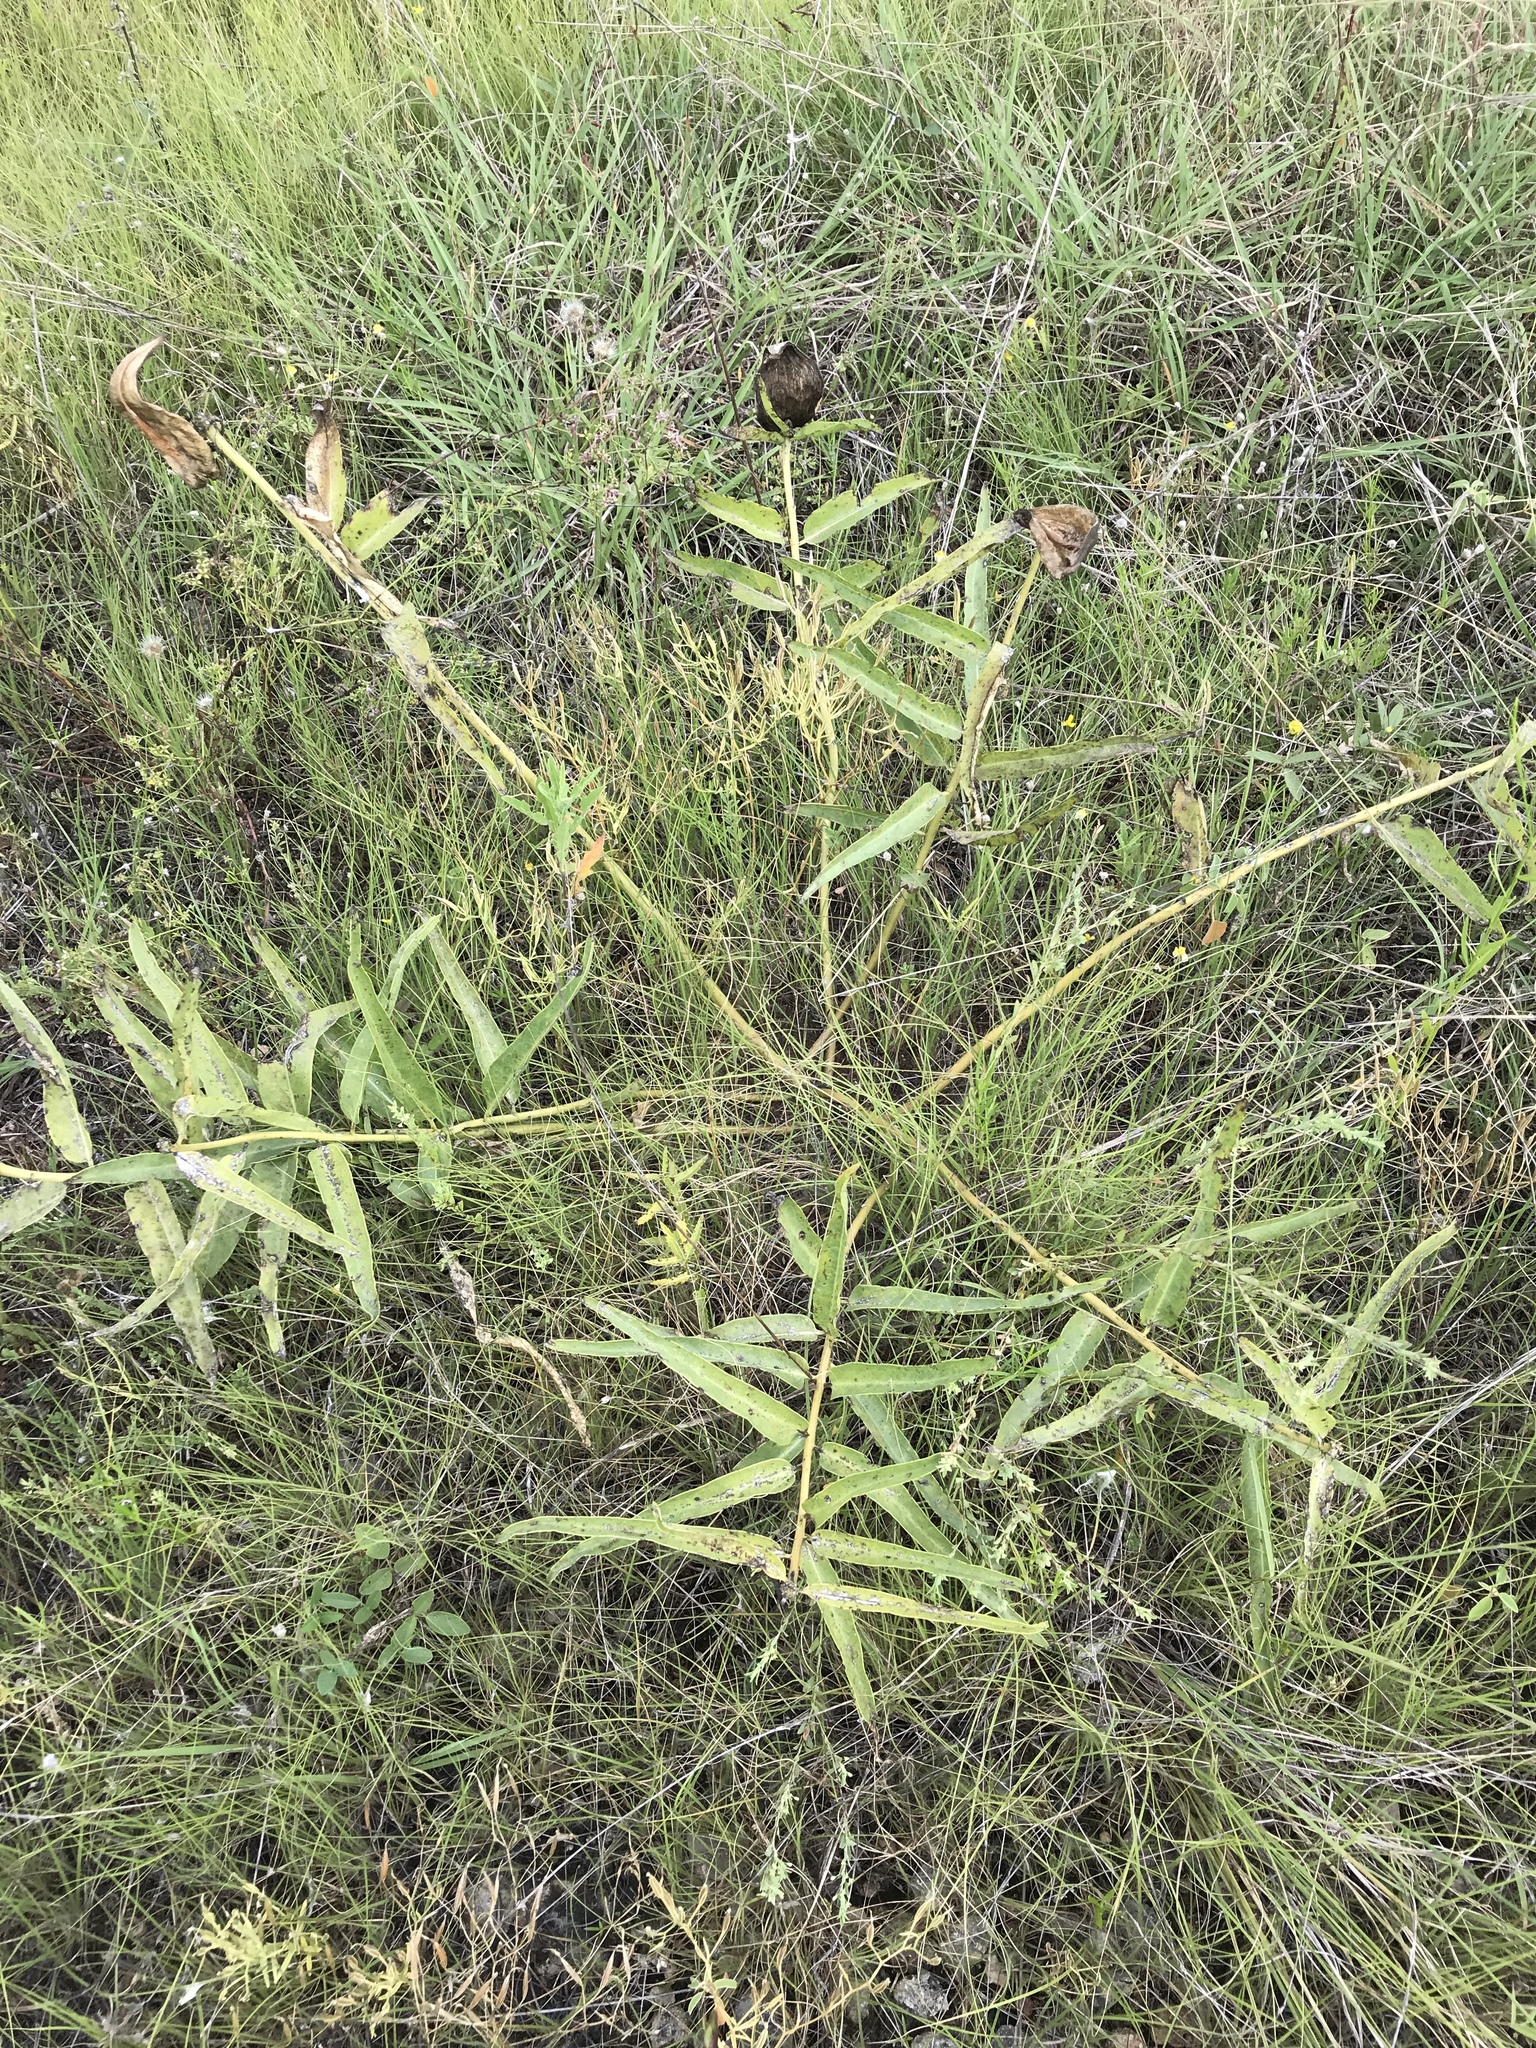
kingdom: Plantae
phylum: Tracheophyta
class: Magnoliopsida
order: Gentianales
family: Apocynaceae
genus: Asclepias
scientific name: Asclepias asperula
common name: Antelope horns
